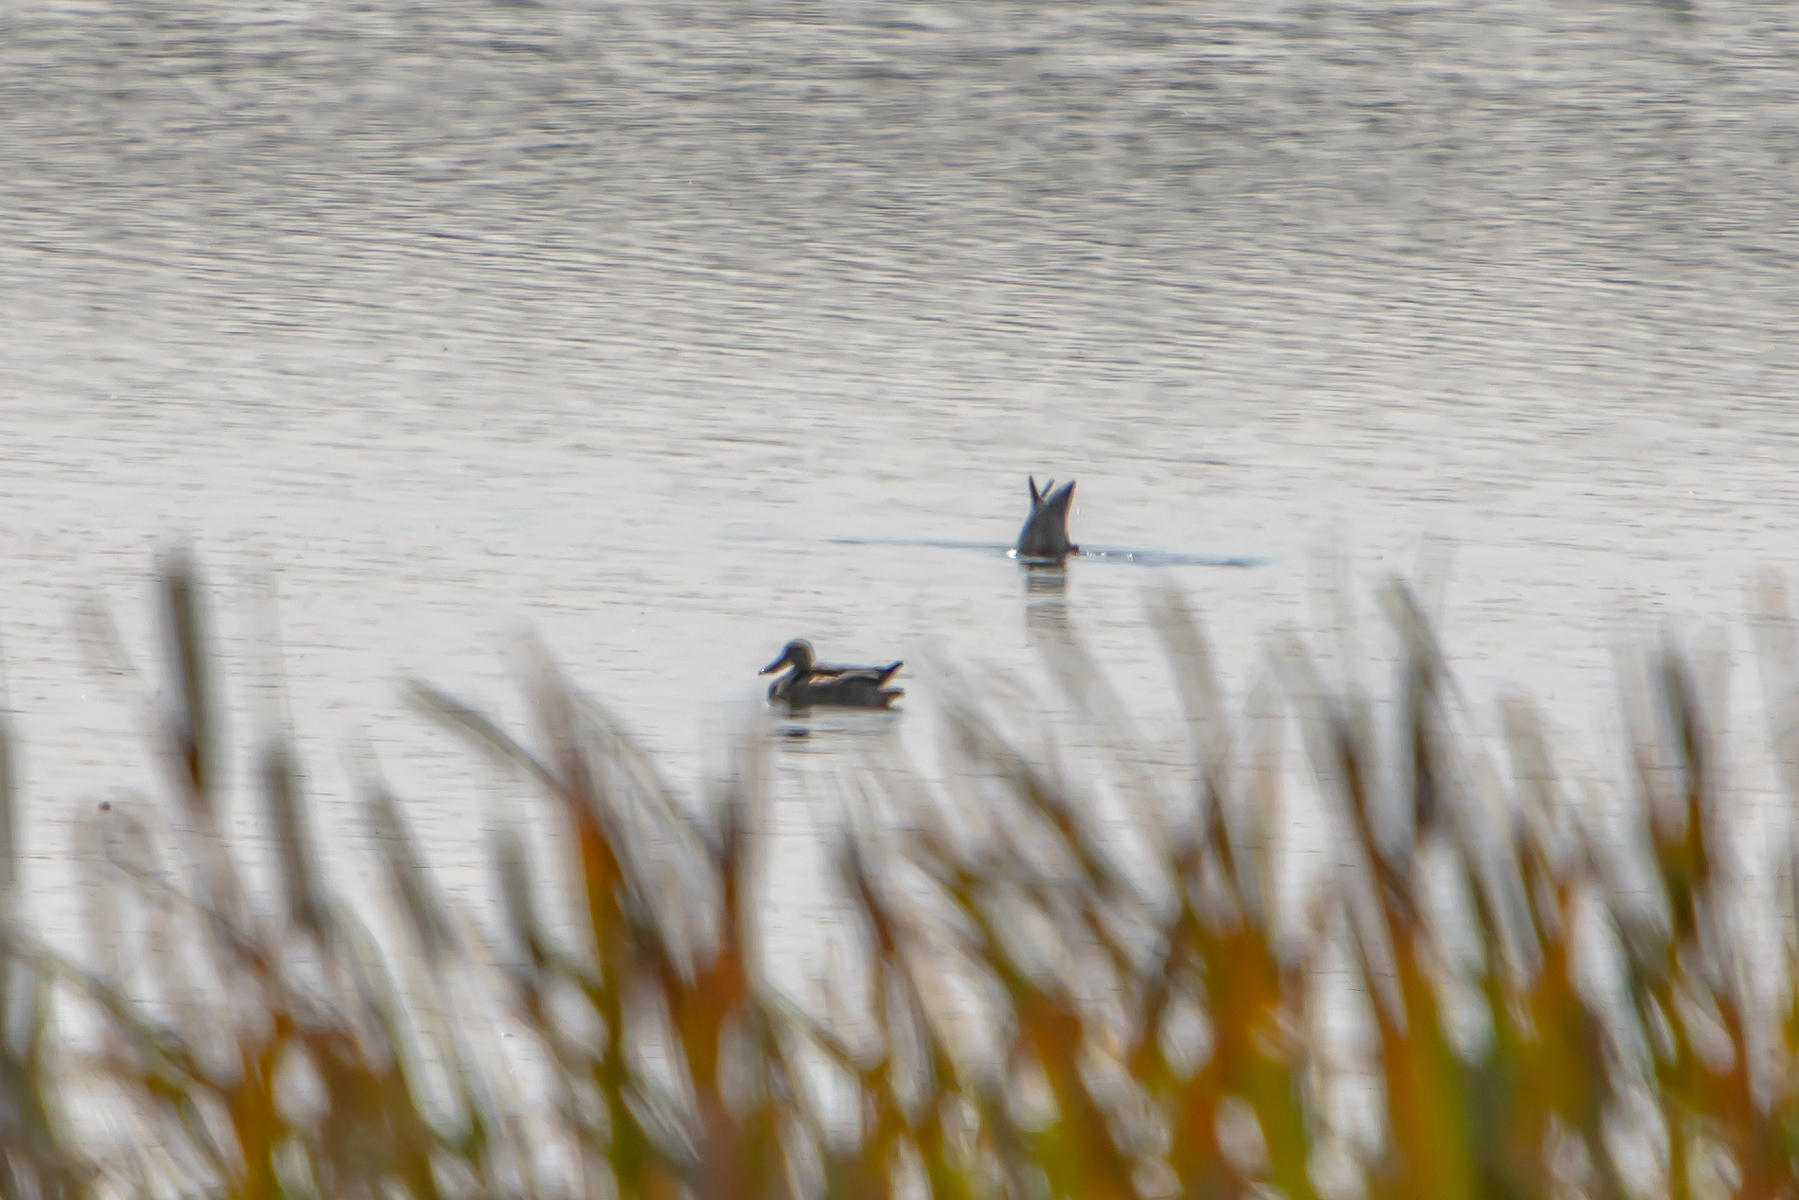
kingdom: Animalia
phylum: Chordata
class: Aves
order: Anseriformes
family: Anatidae
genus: Spatula
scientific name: Spatula clypeata
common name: Northern shoveler
